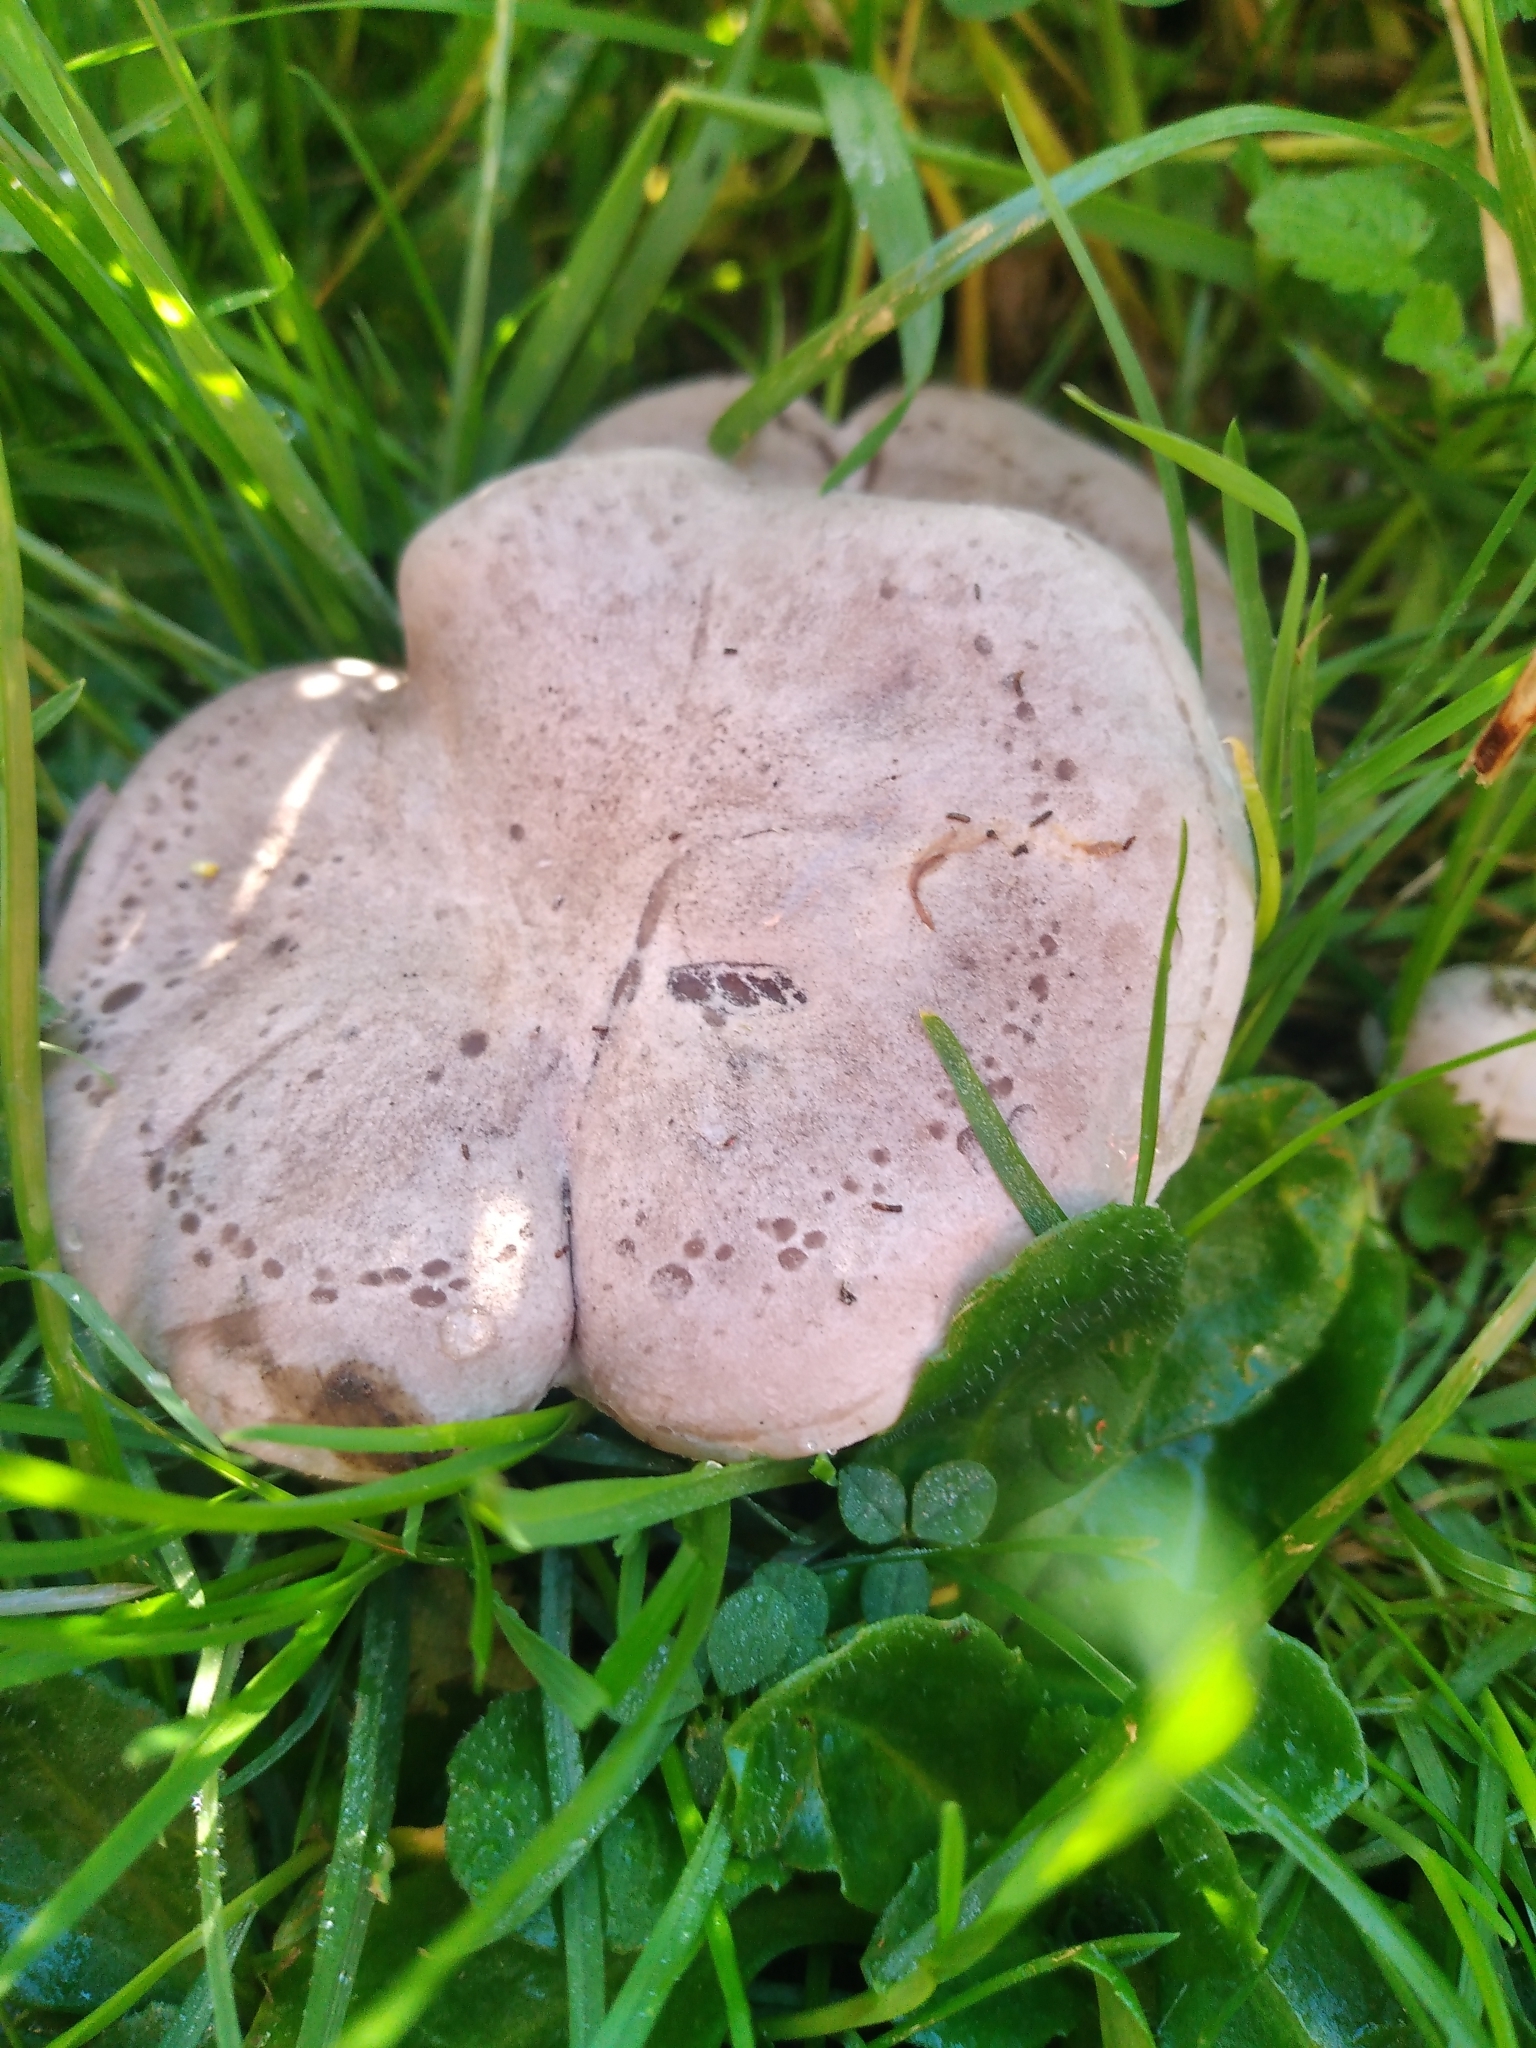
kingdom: Fungi
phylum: Basidiomycota
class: Agaricomycetes
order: Agaricales
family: Tricholomataceae
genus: Lepista
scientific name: Lepista luscina
